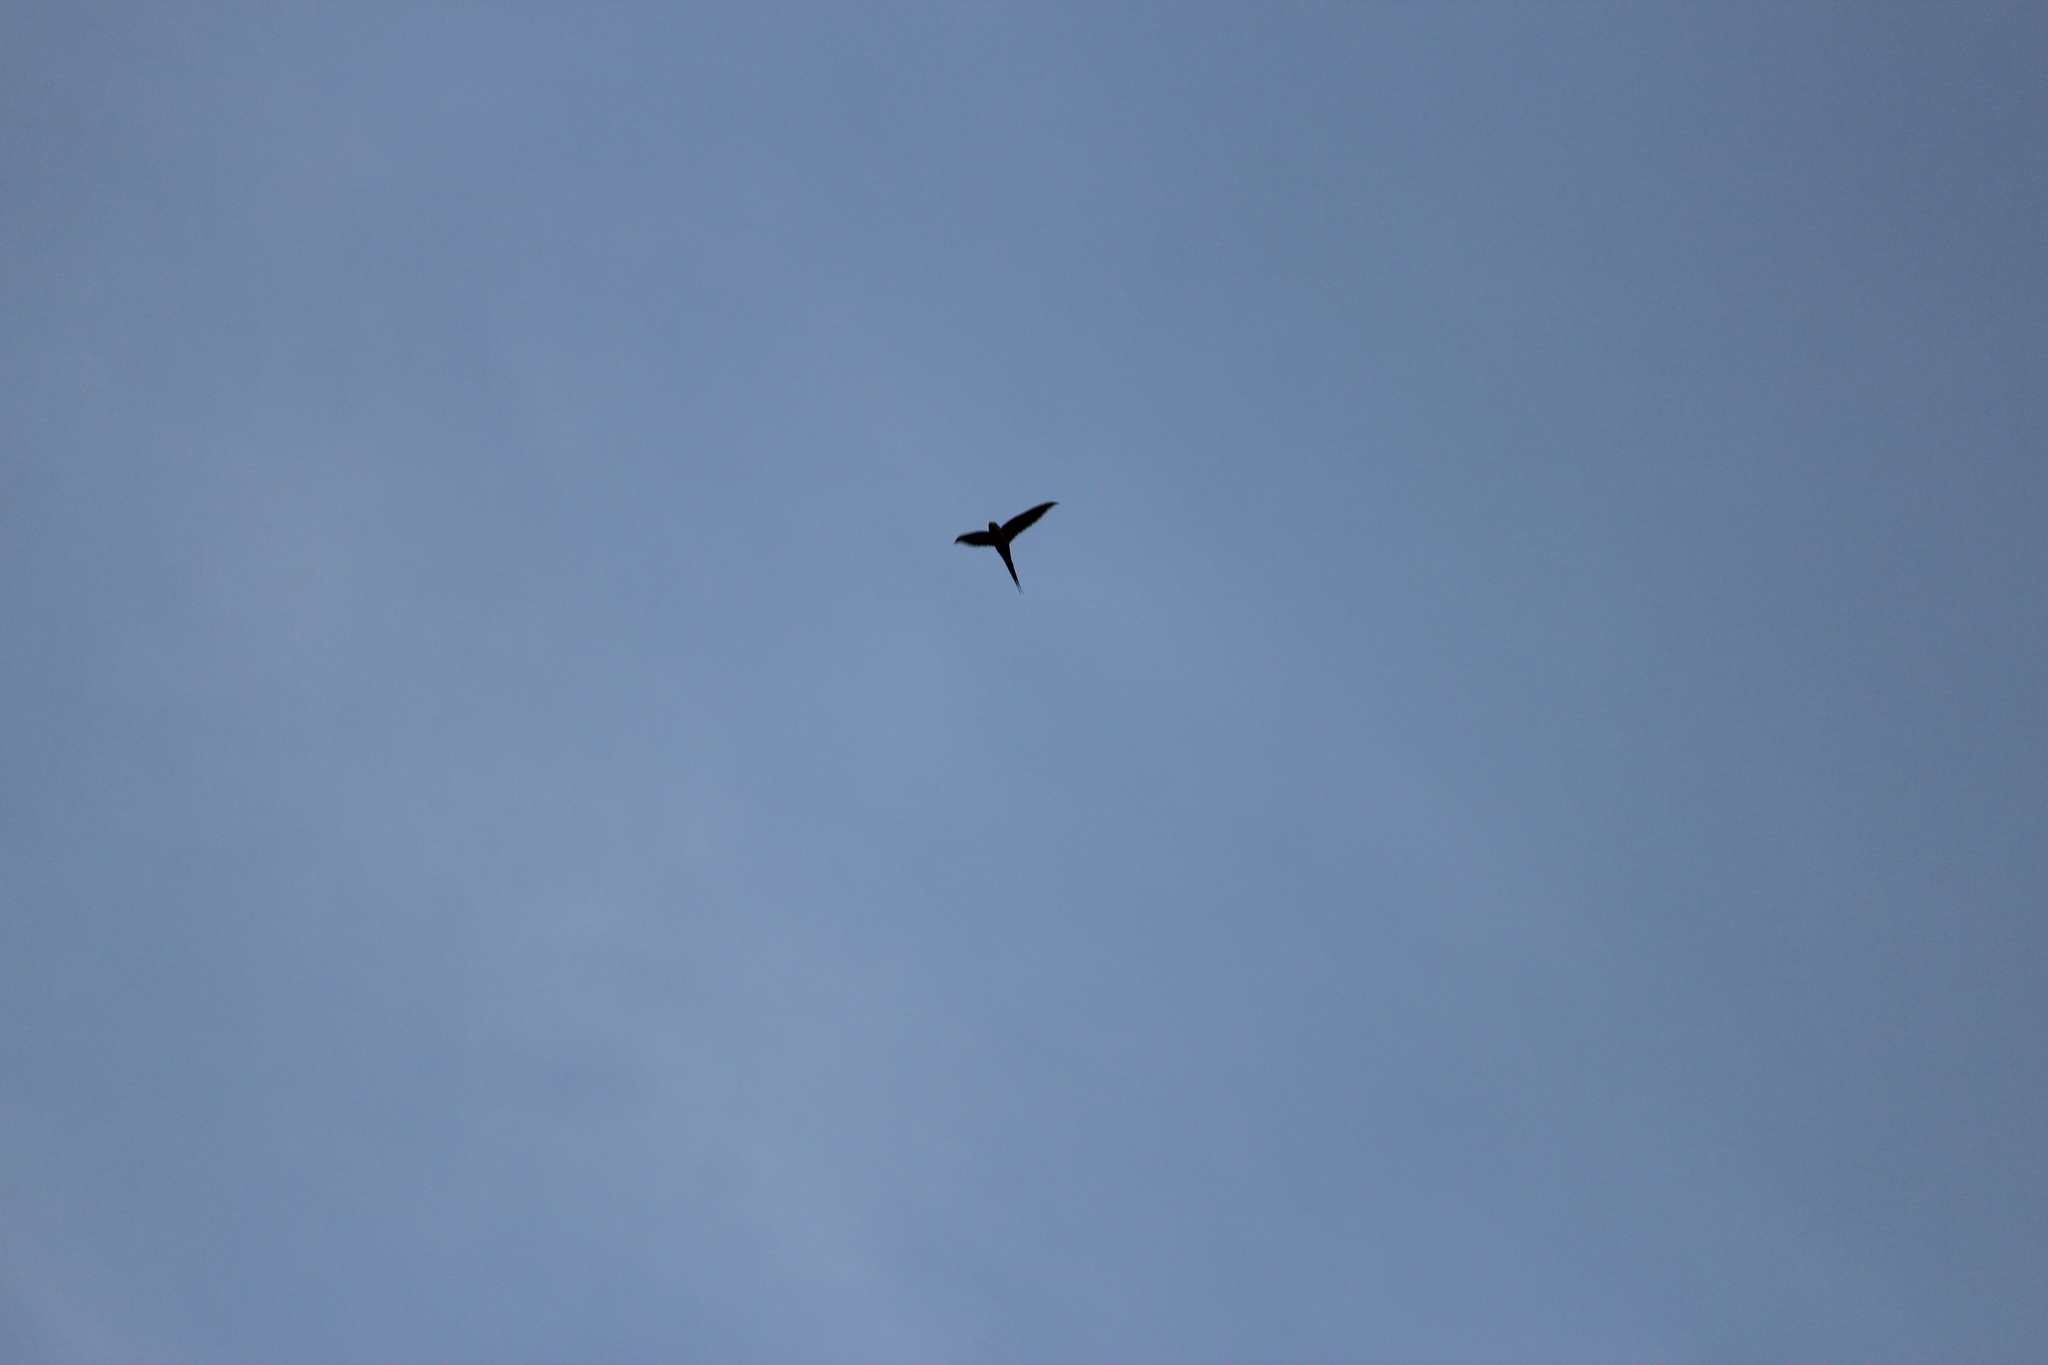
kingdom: Animalia
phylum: Chordata
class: Aves
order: Apodiformes
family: Apodidae
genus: Cypsiurus
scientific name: Cypsiurus parvus
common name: African palm swift
